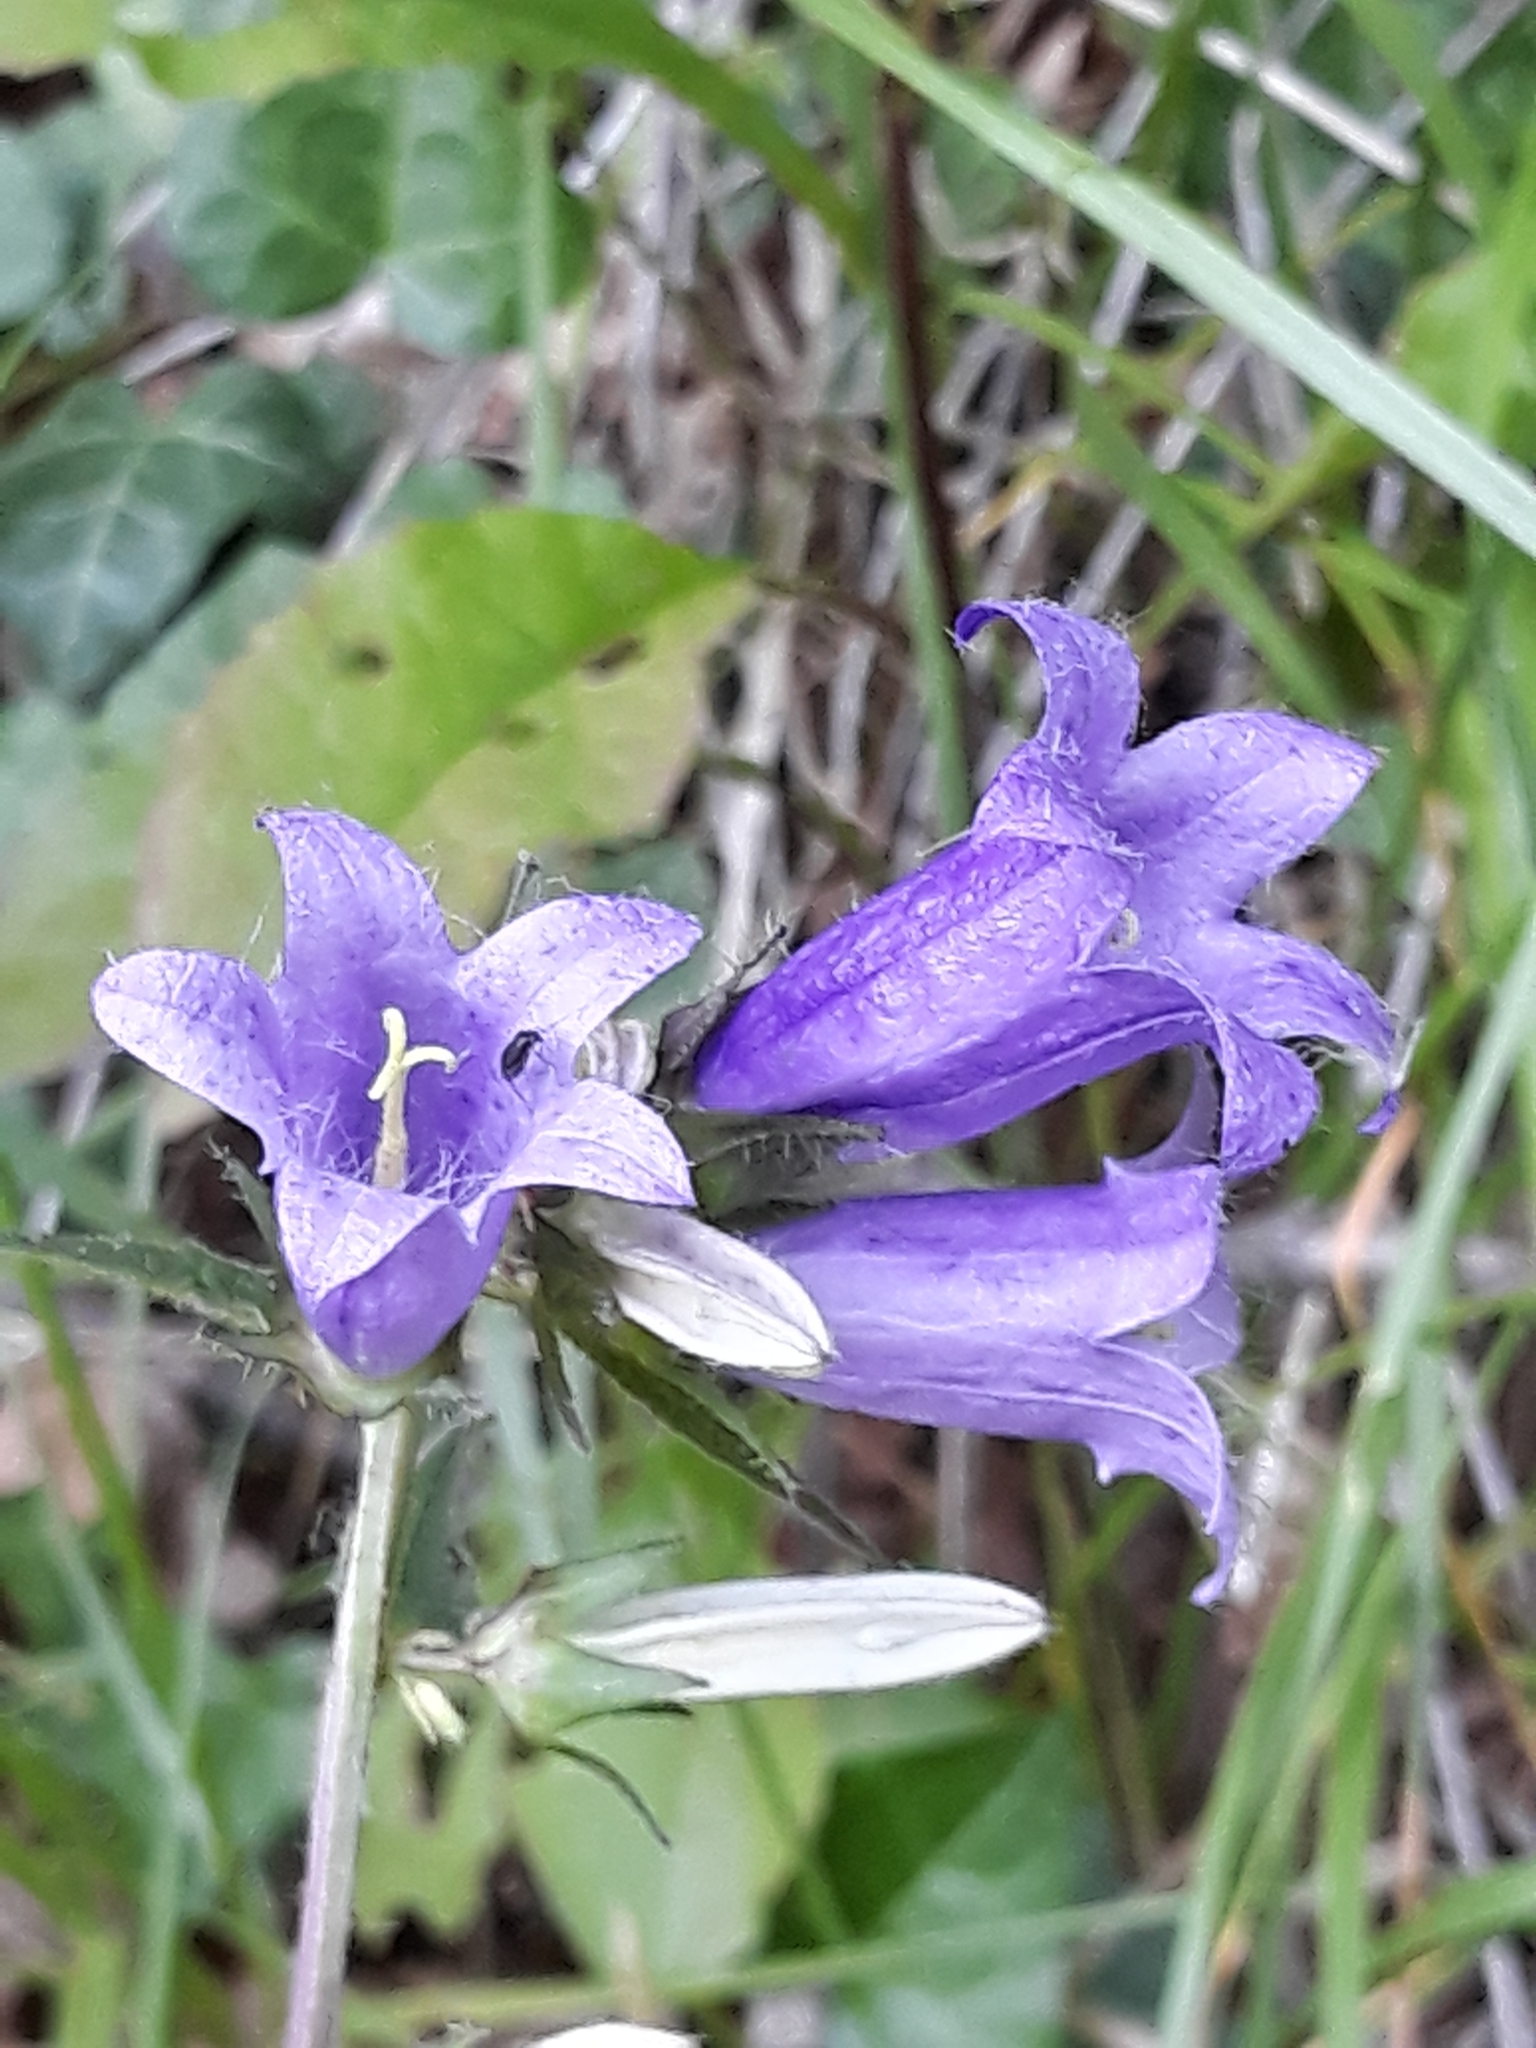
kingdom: Plantae
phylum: Tracheophyta
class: Magnoliopsida
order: Asterales
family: Campanulaceae
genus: Campanula
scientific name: Campanula trachelium
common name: Nettle-leaved bellflower
